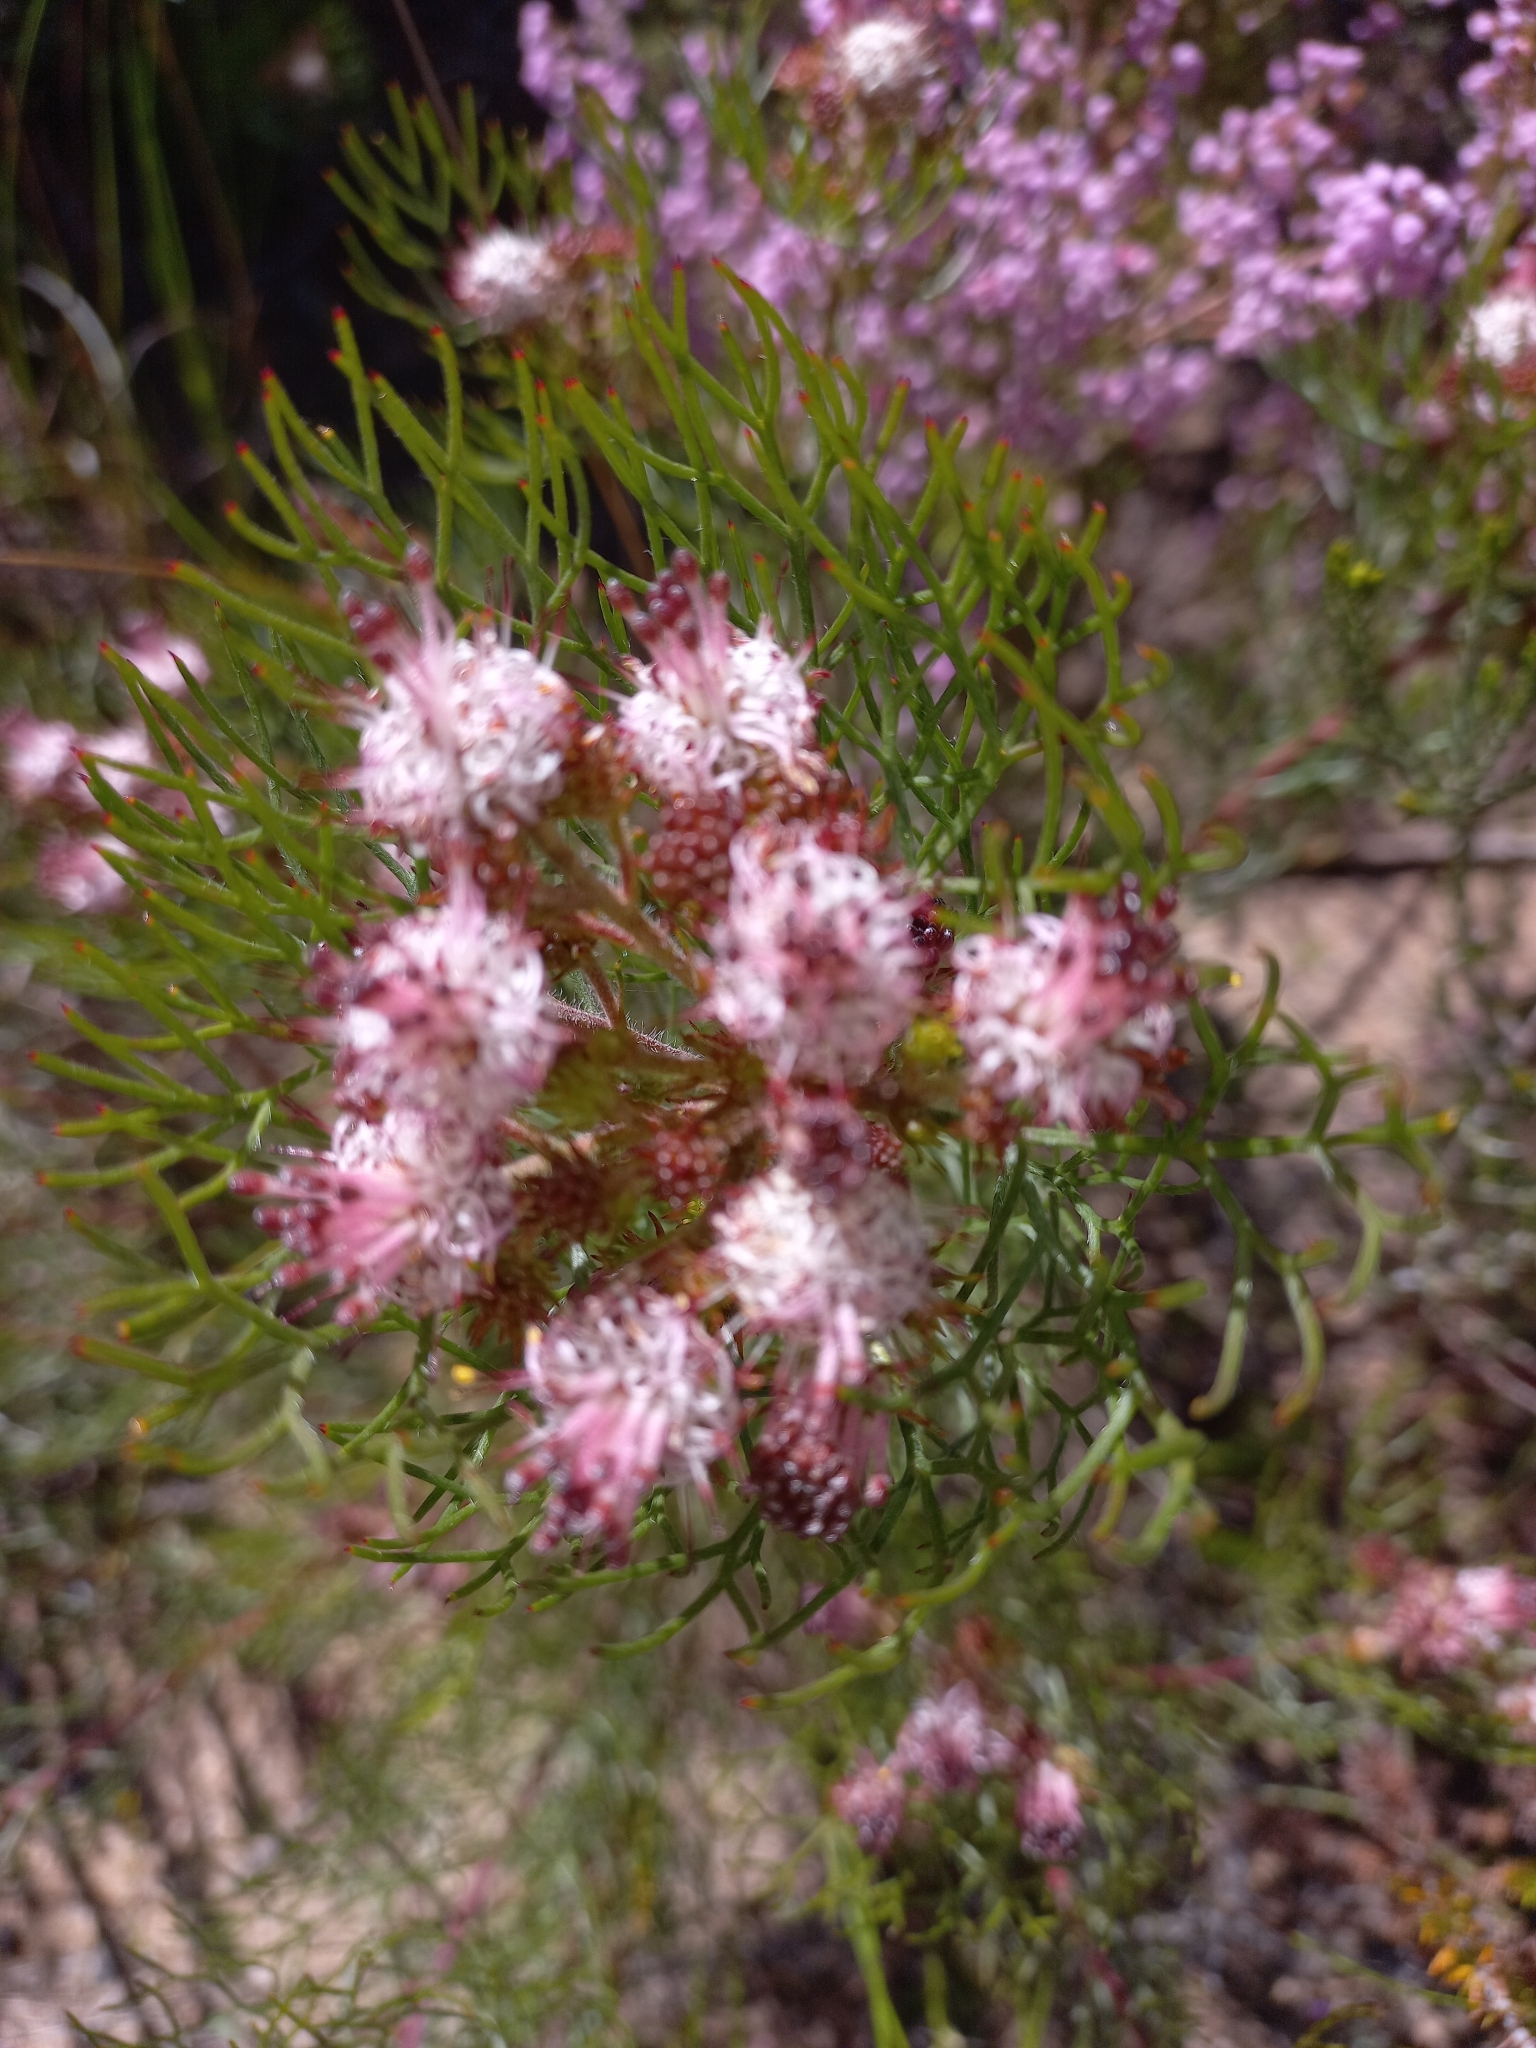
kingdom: Plantae
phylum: Tracheophyta
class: Magnoliopsida
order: Proteales
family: Proteaceae
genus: Serruria
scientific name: Serruria fasciflora
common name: Common pin spiderhead
